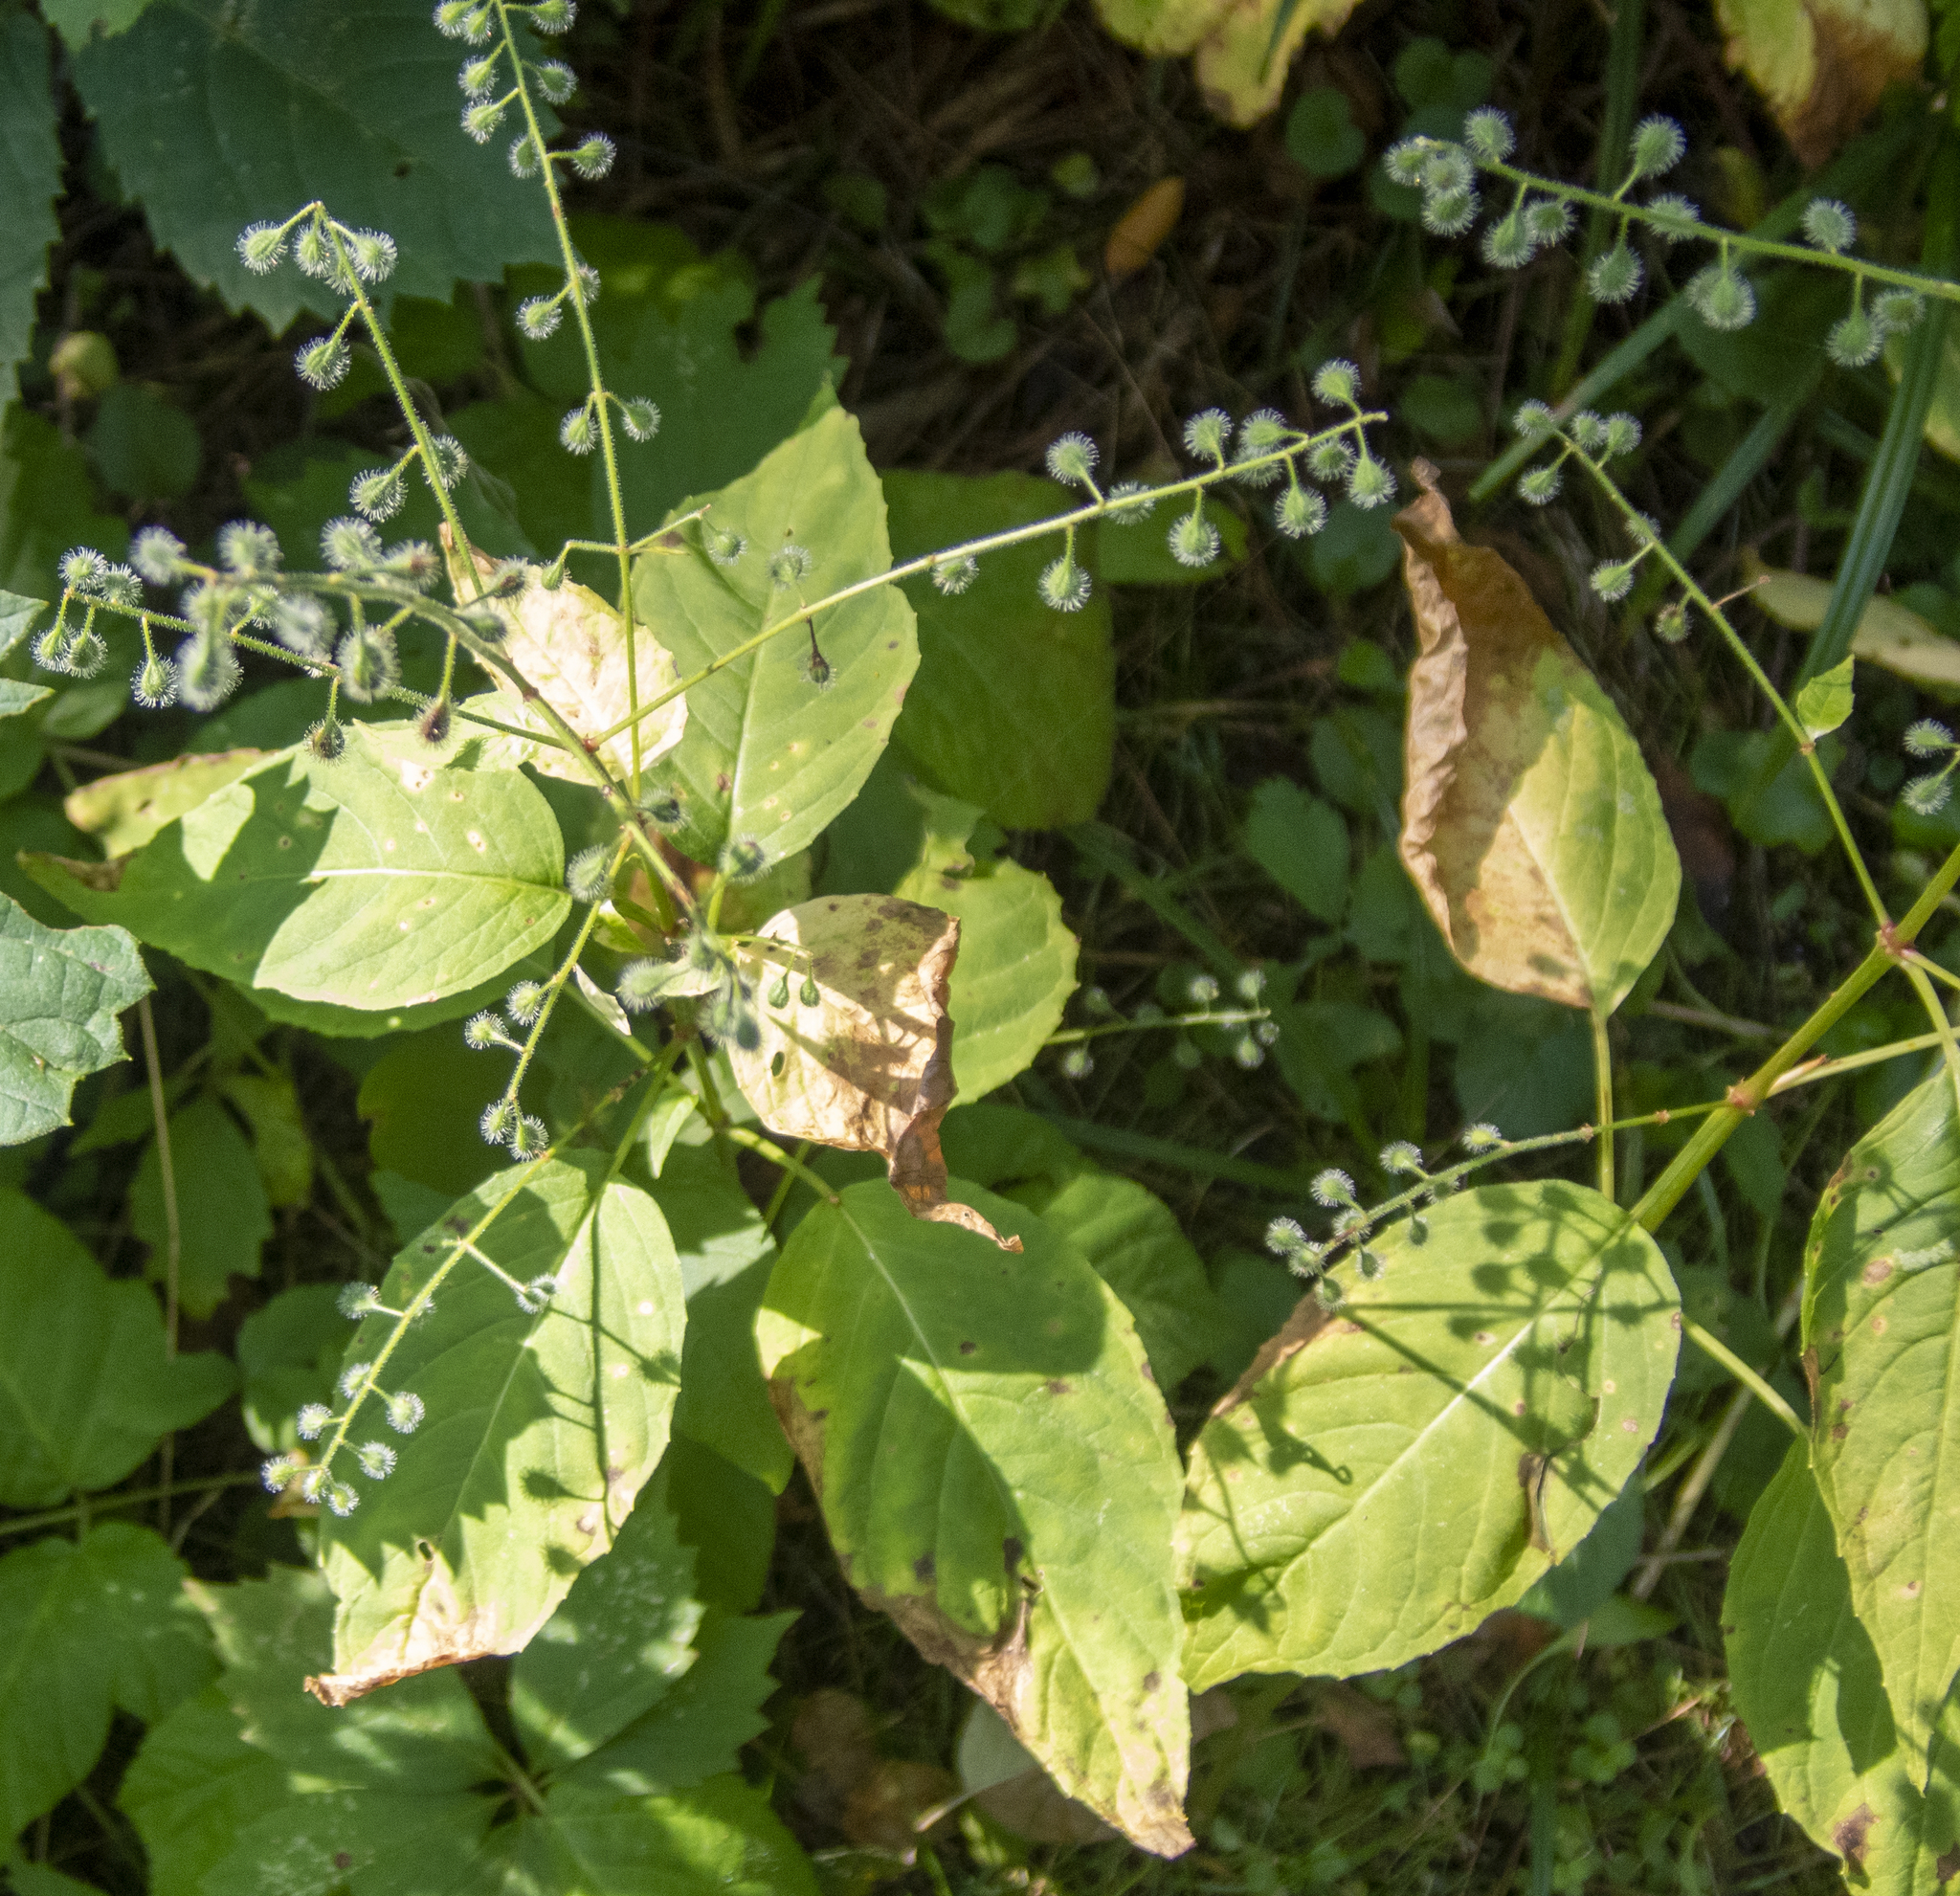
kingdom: Plantae
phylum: Tracheophyta
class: Magnoliopsida
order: Myrtales
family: Onagraceae
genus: Circaea
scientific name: Circaea canadensis
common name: Broad-leaved enchanter's nightshade
